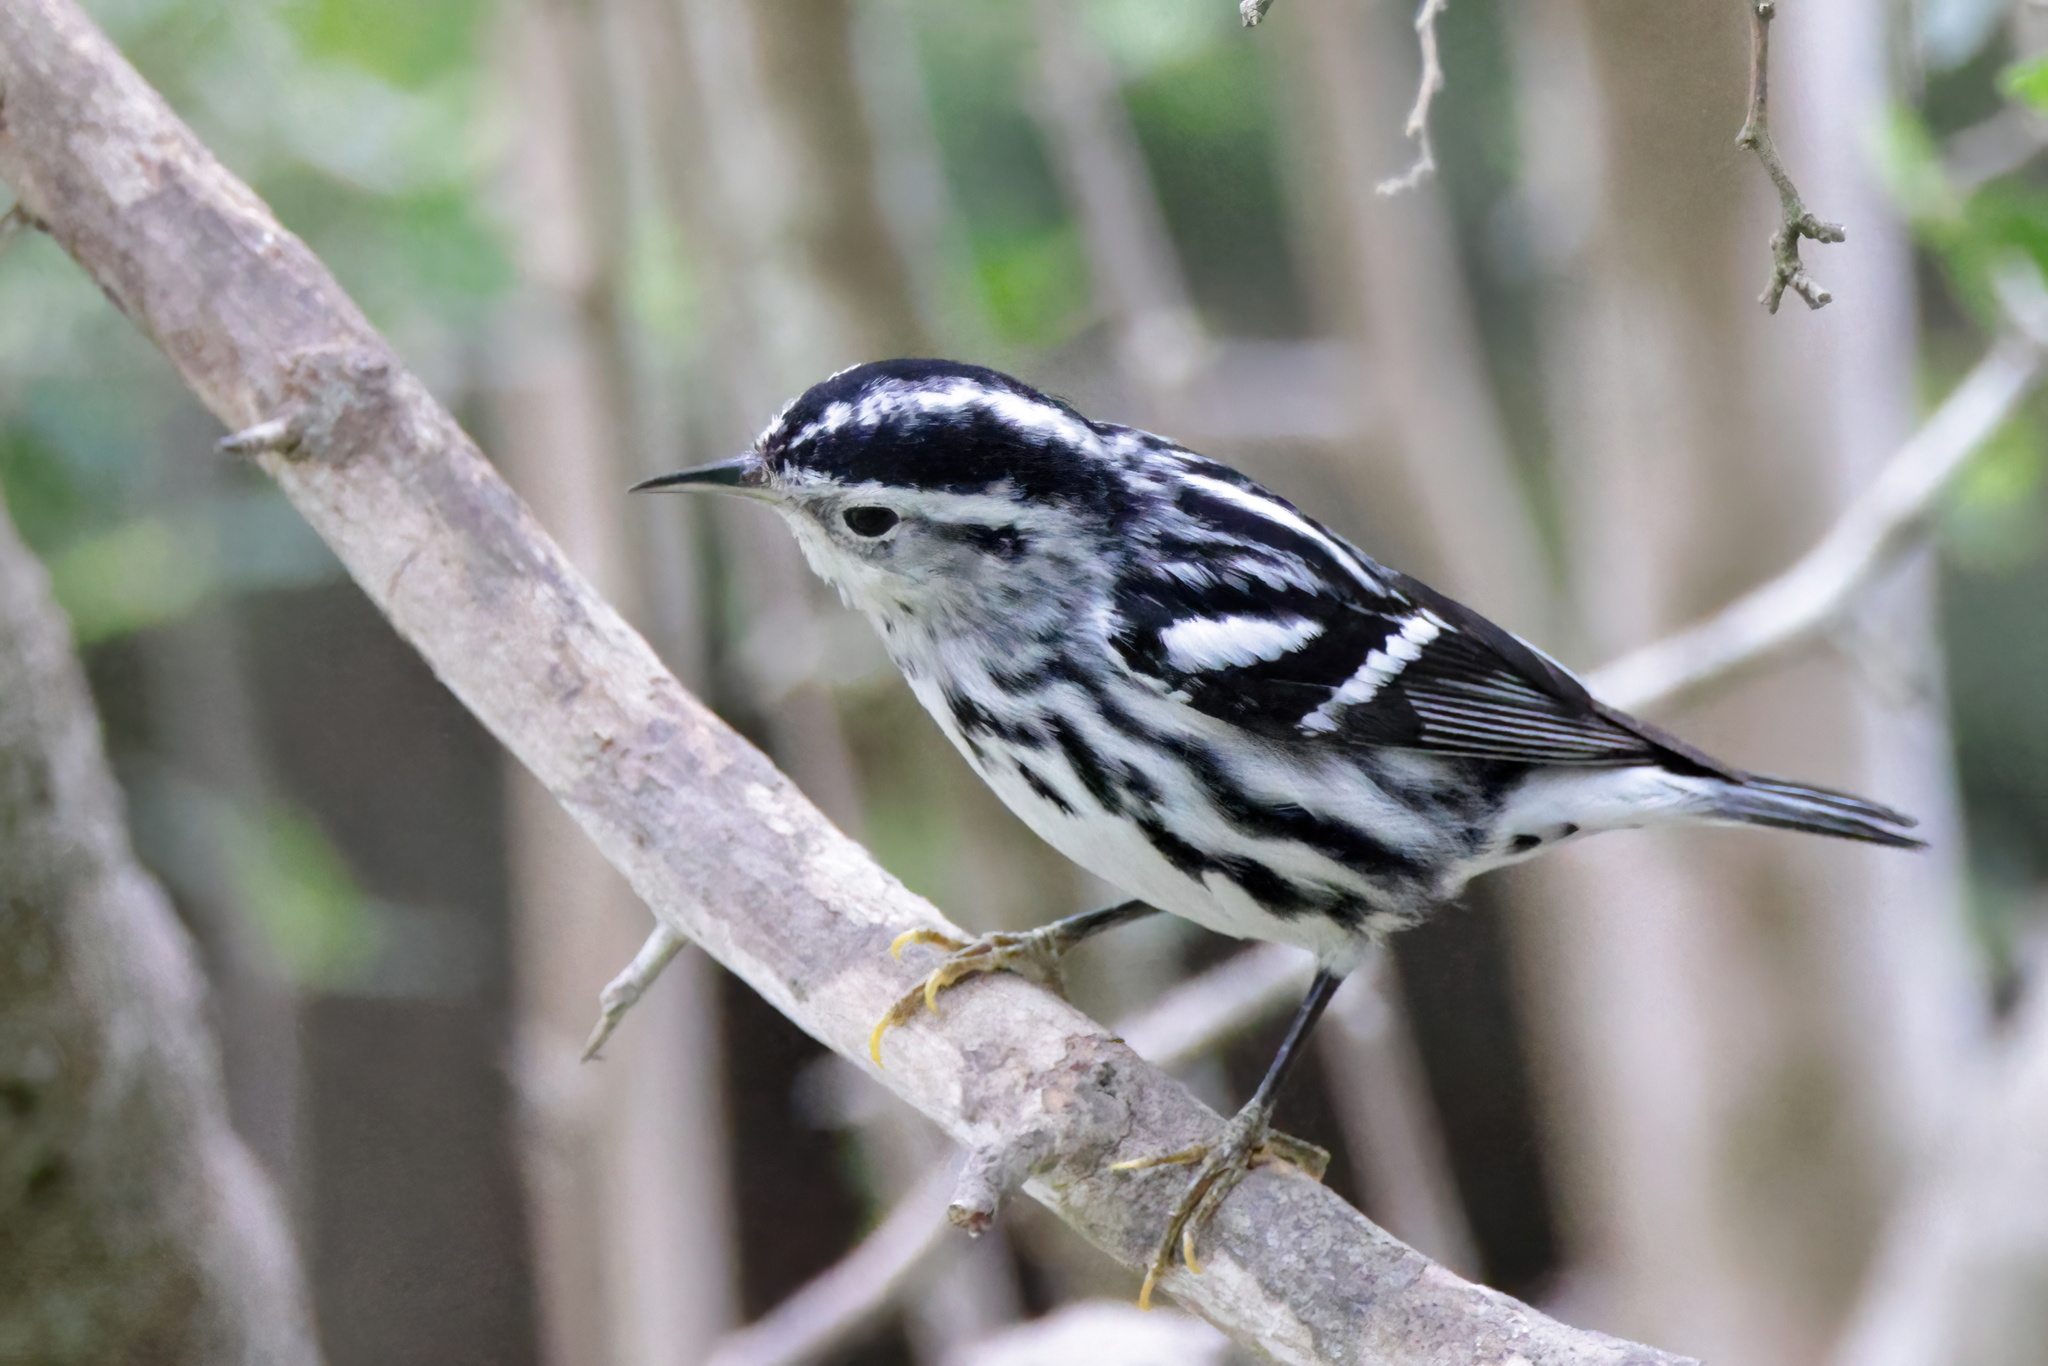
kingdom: Animalia
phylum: Chordata
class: Aves
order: Passeriformes
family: Parulidae
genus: Mniotilta
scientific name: Mniotilta varia
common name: Black-and-white warbler
